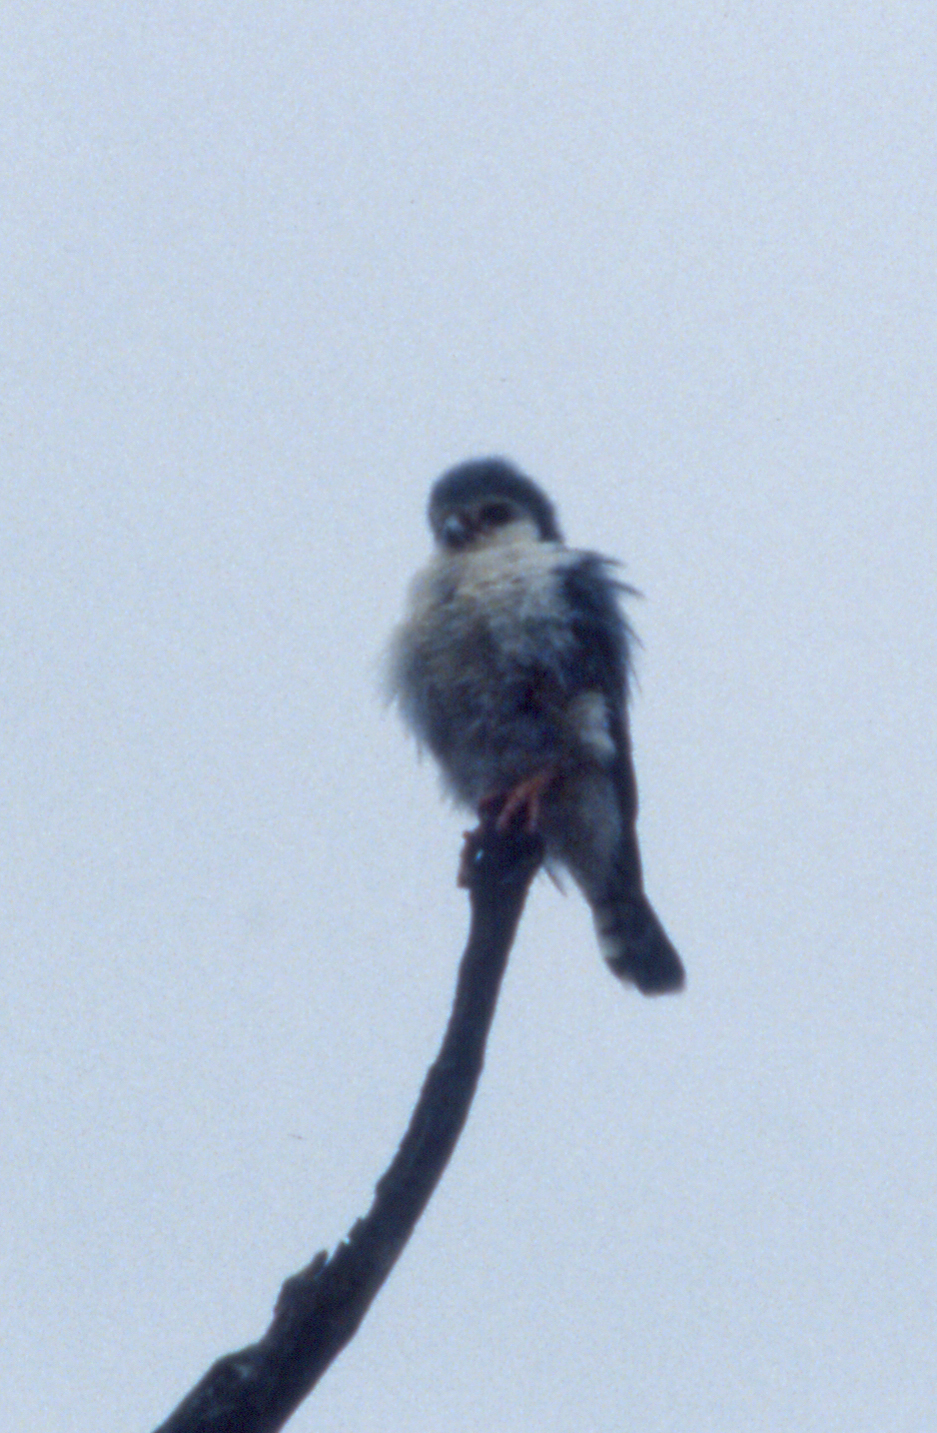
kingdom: Animalia
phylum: Chordata
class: Aves
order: Falconiformes
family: Falconidae
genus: Polihierax
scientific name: Polihierax semitorquatus
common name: Pygmy falcon
